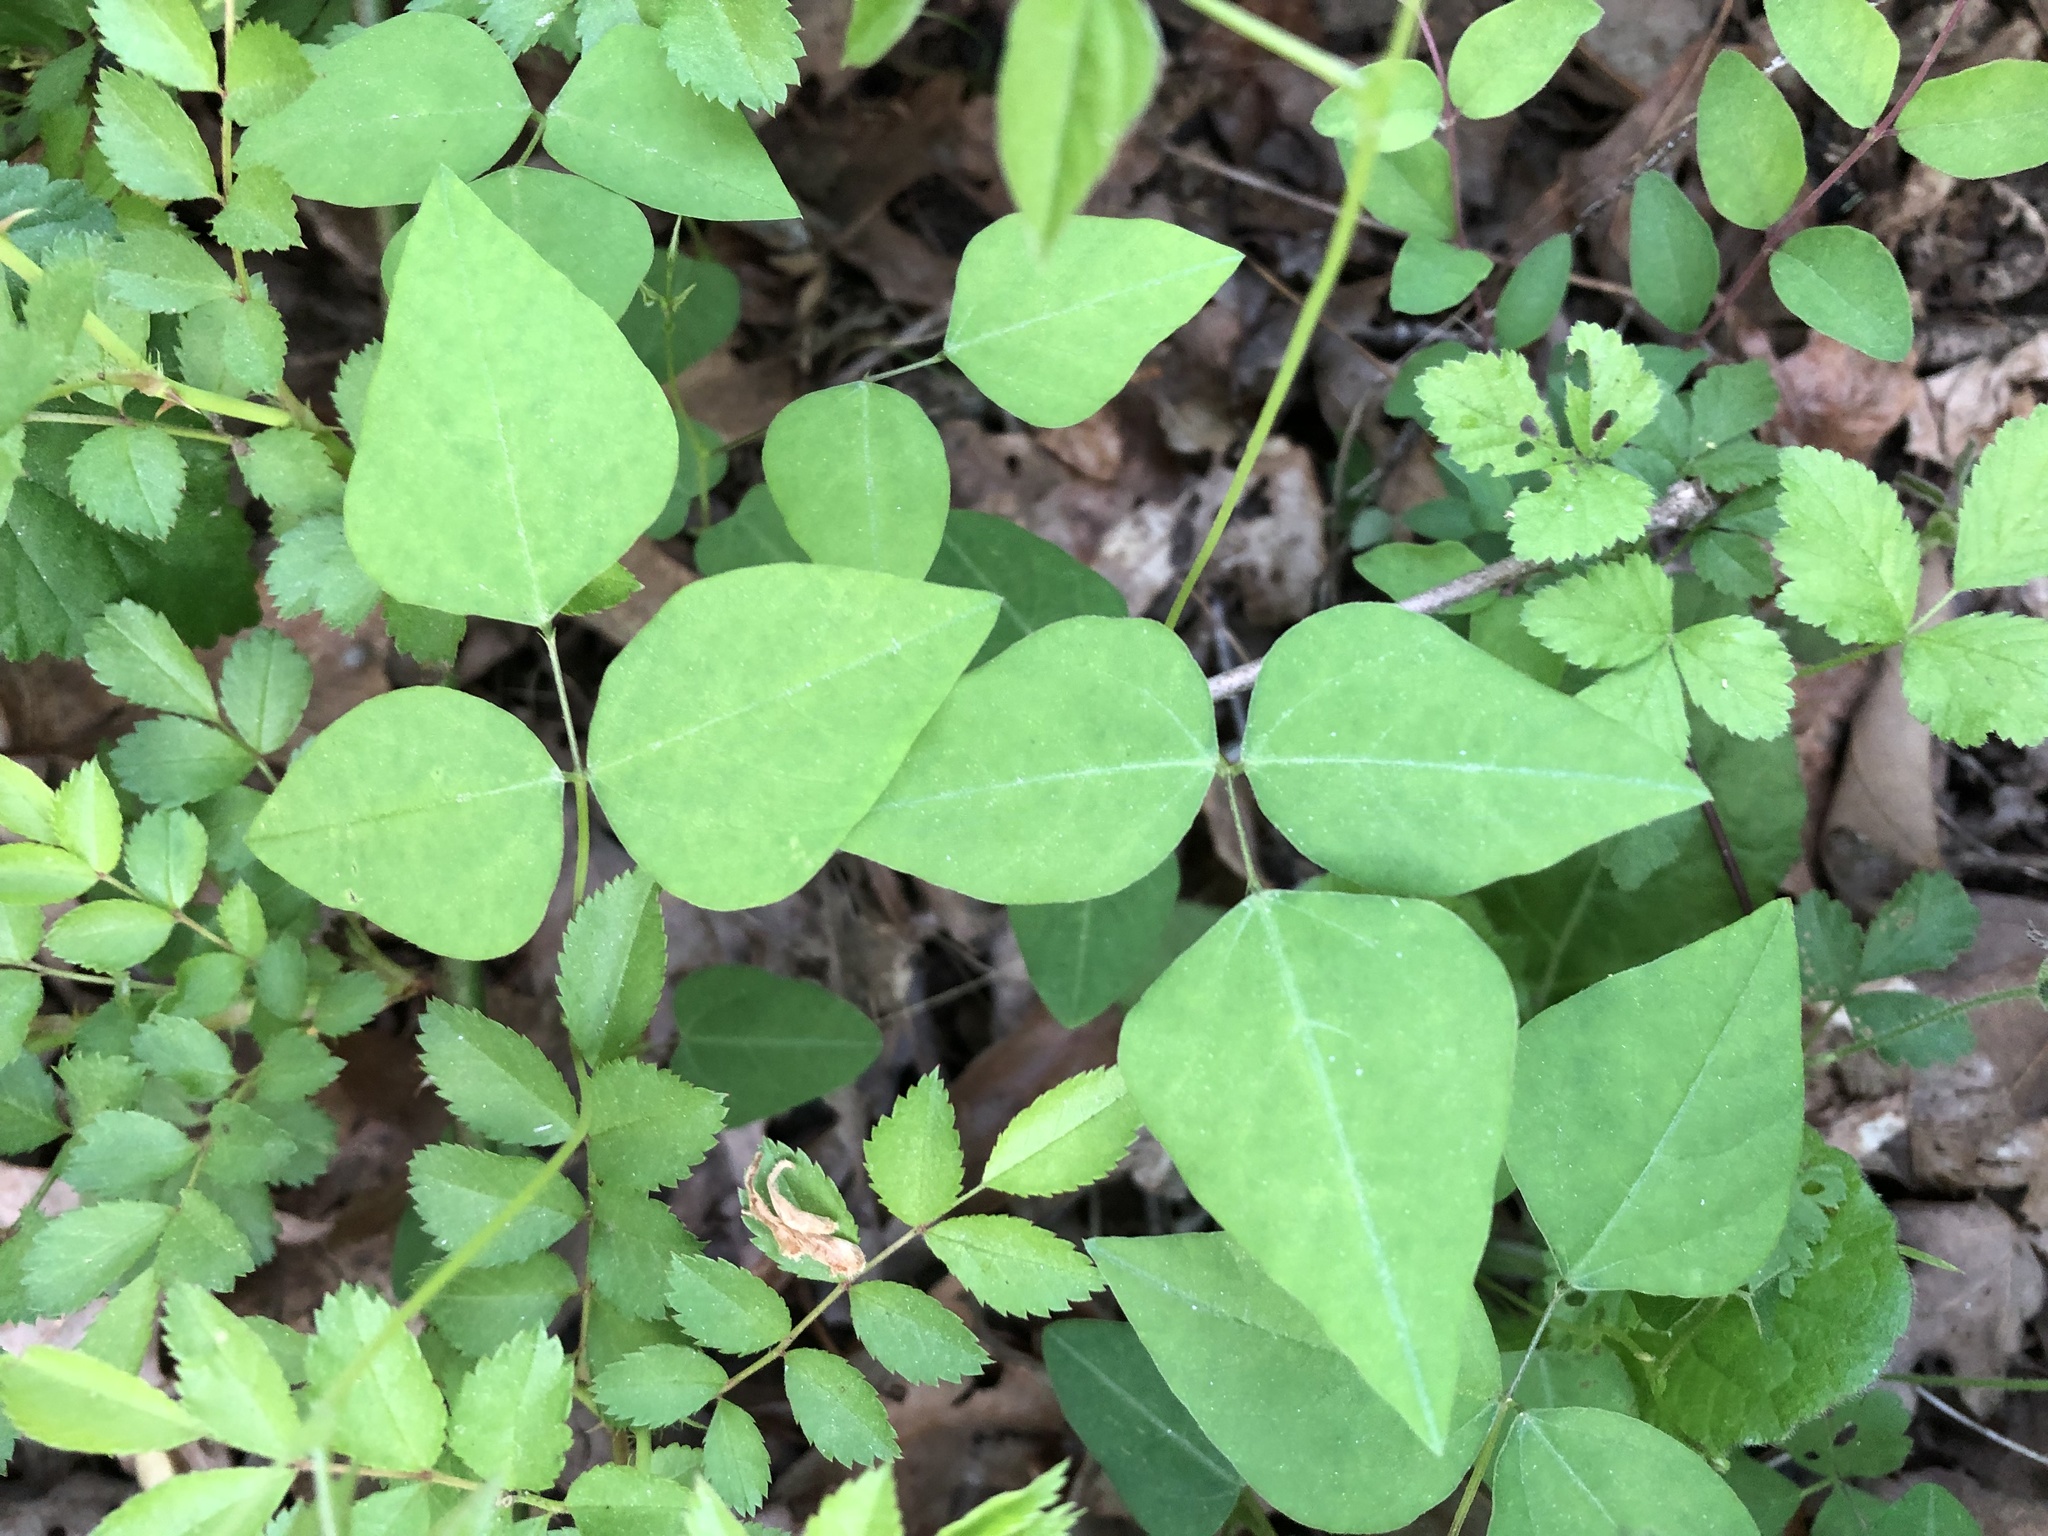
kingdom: Plantae
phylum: Tracheophyta
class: Magnoliopsida
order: Fabales
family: Fabaceae
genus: Amphicarpaea
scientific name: Amphicarpaea bracteata
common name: American hog peanut
